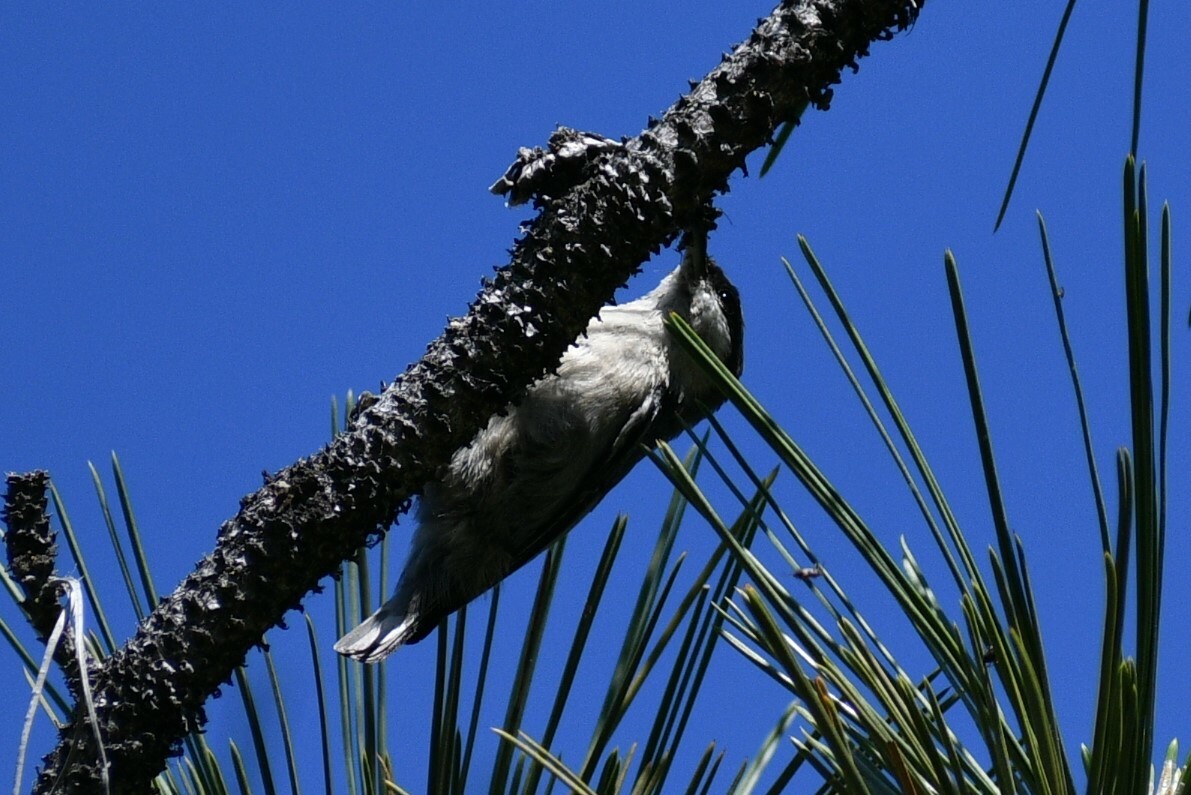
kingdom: Animalia
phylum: Chordata
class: Aves
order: Passeriformes
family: Sittidae
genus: Sitta
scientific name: Sitta pygmaea
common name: Pygmy nuthatch
